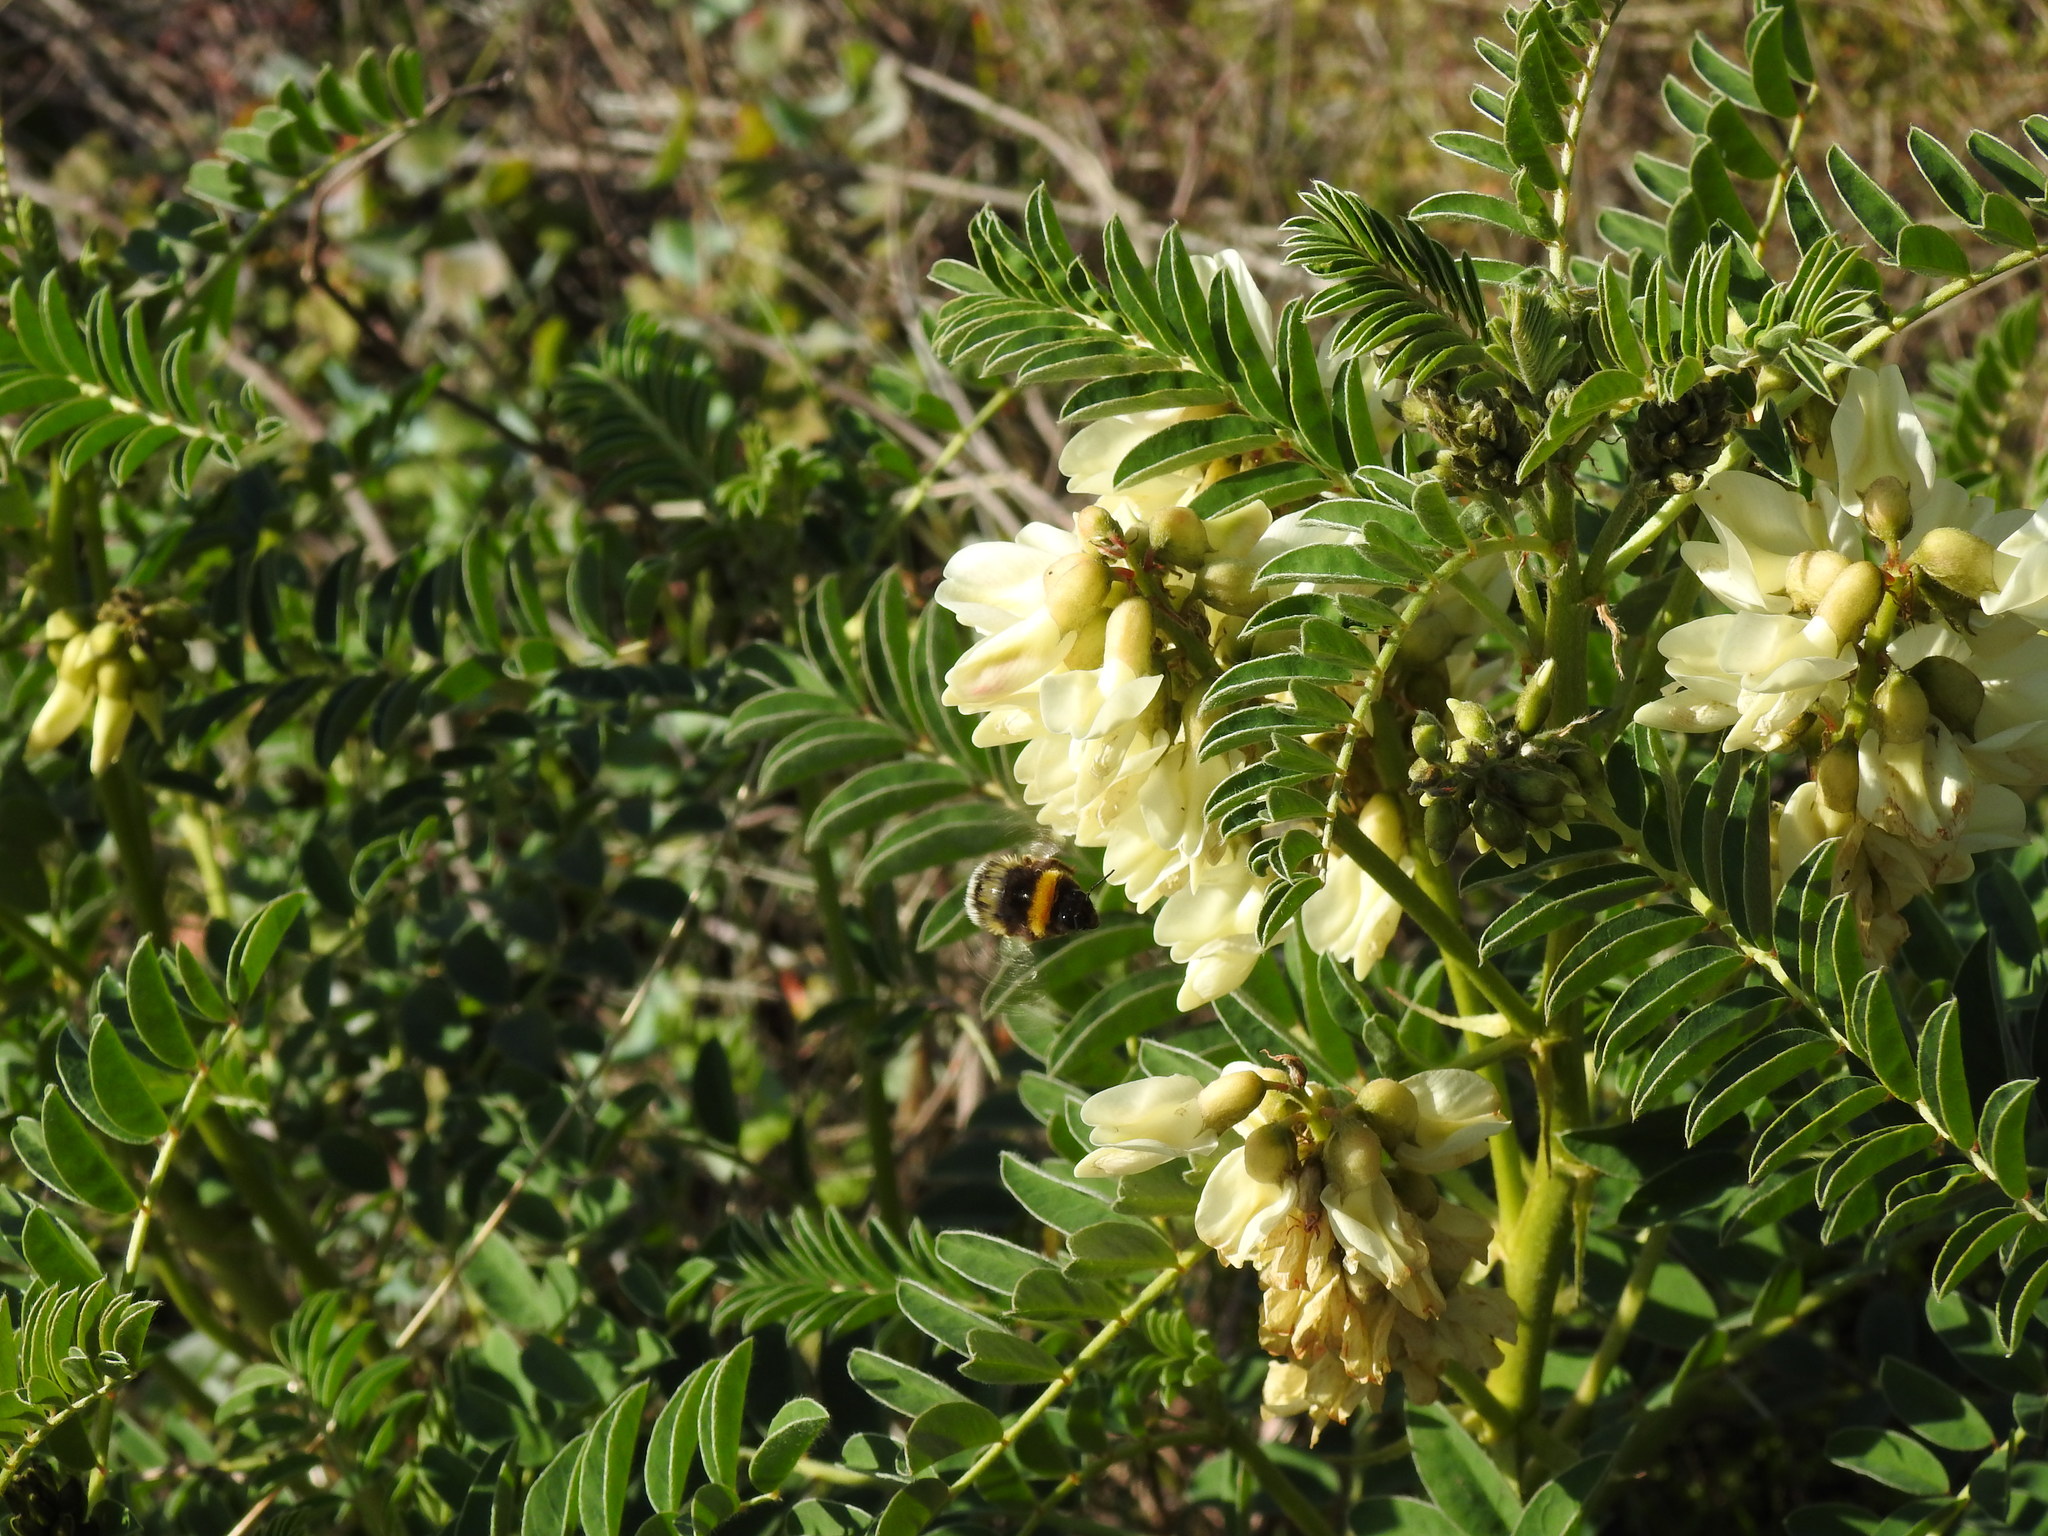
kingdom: Plantae
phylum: Tracheophyta
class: Magnoliopsida
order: Fabales
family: Fabaceae
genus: Erophaca
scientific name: Erophaca baetica
